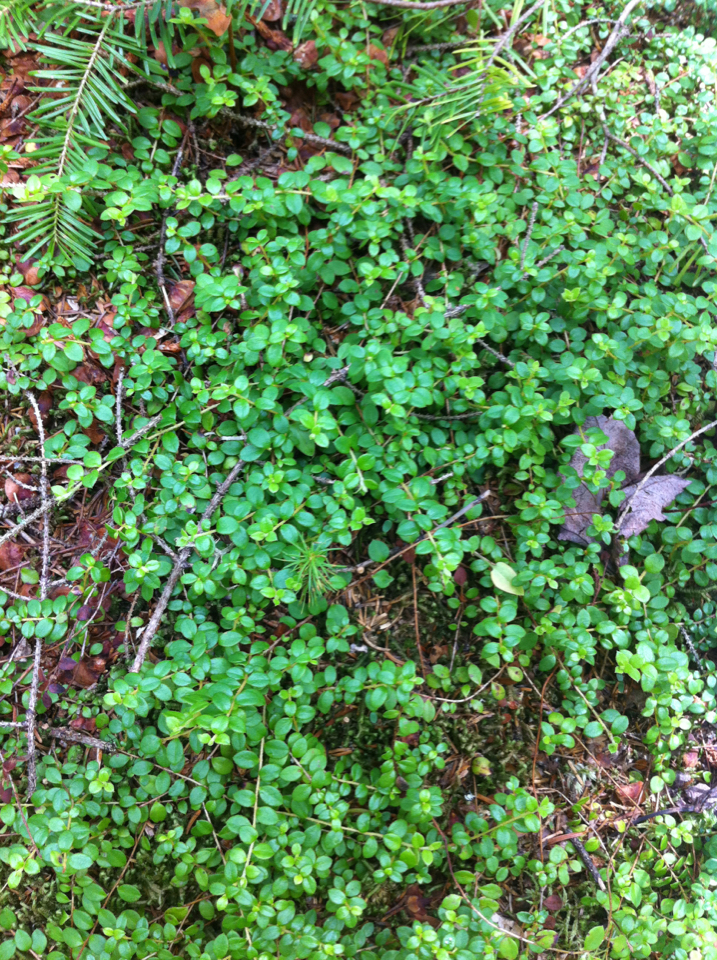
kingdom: Plantae
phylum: Tracheophyta
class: Magnoliopsida
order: Ericales
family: Ericaceae
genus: Gaultheria
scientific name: Gaultheria hispidula
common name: Cancer wintergreen
